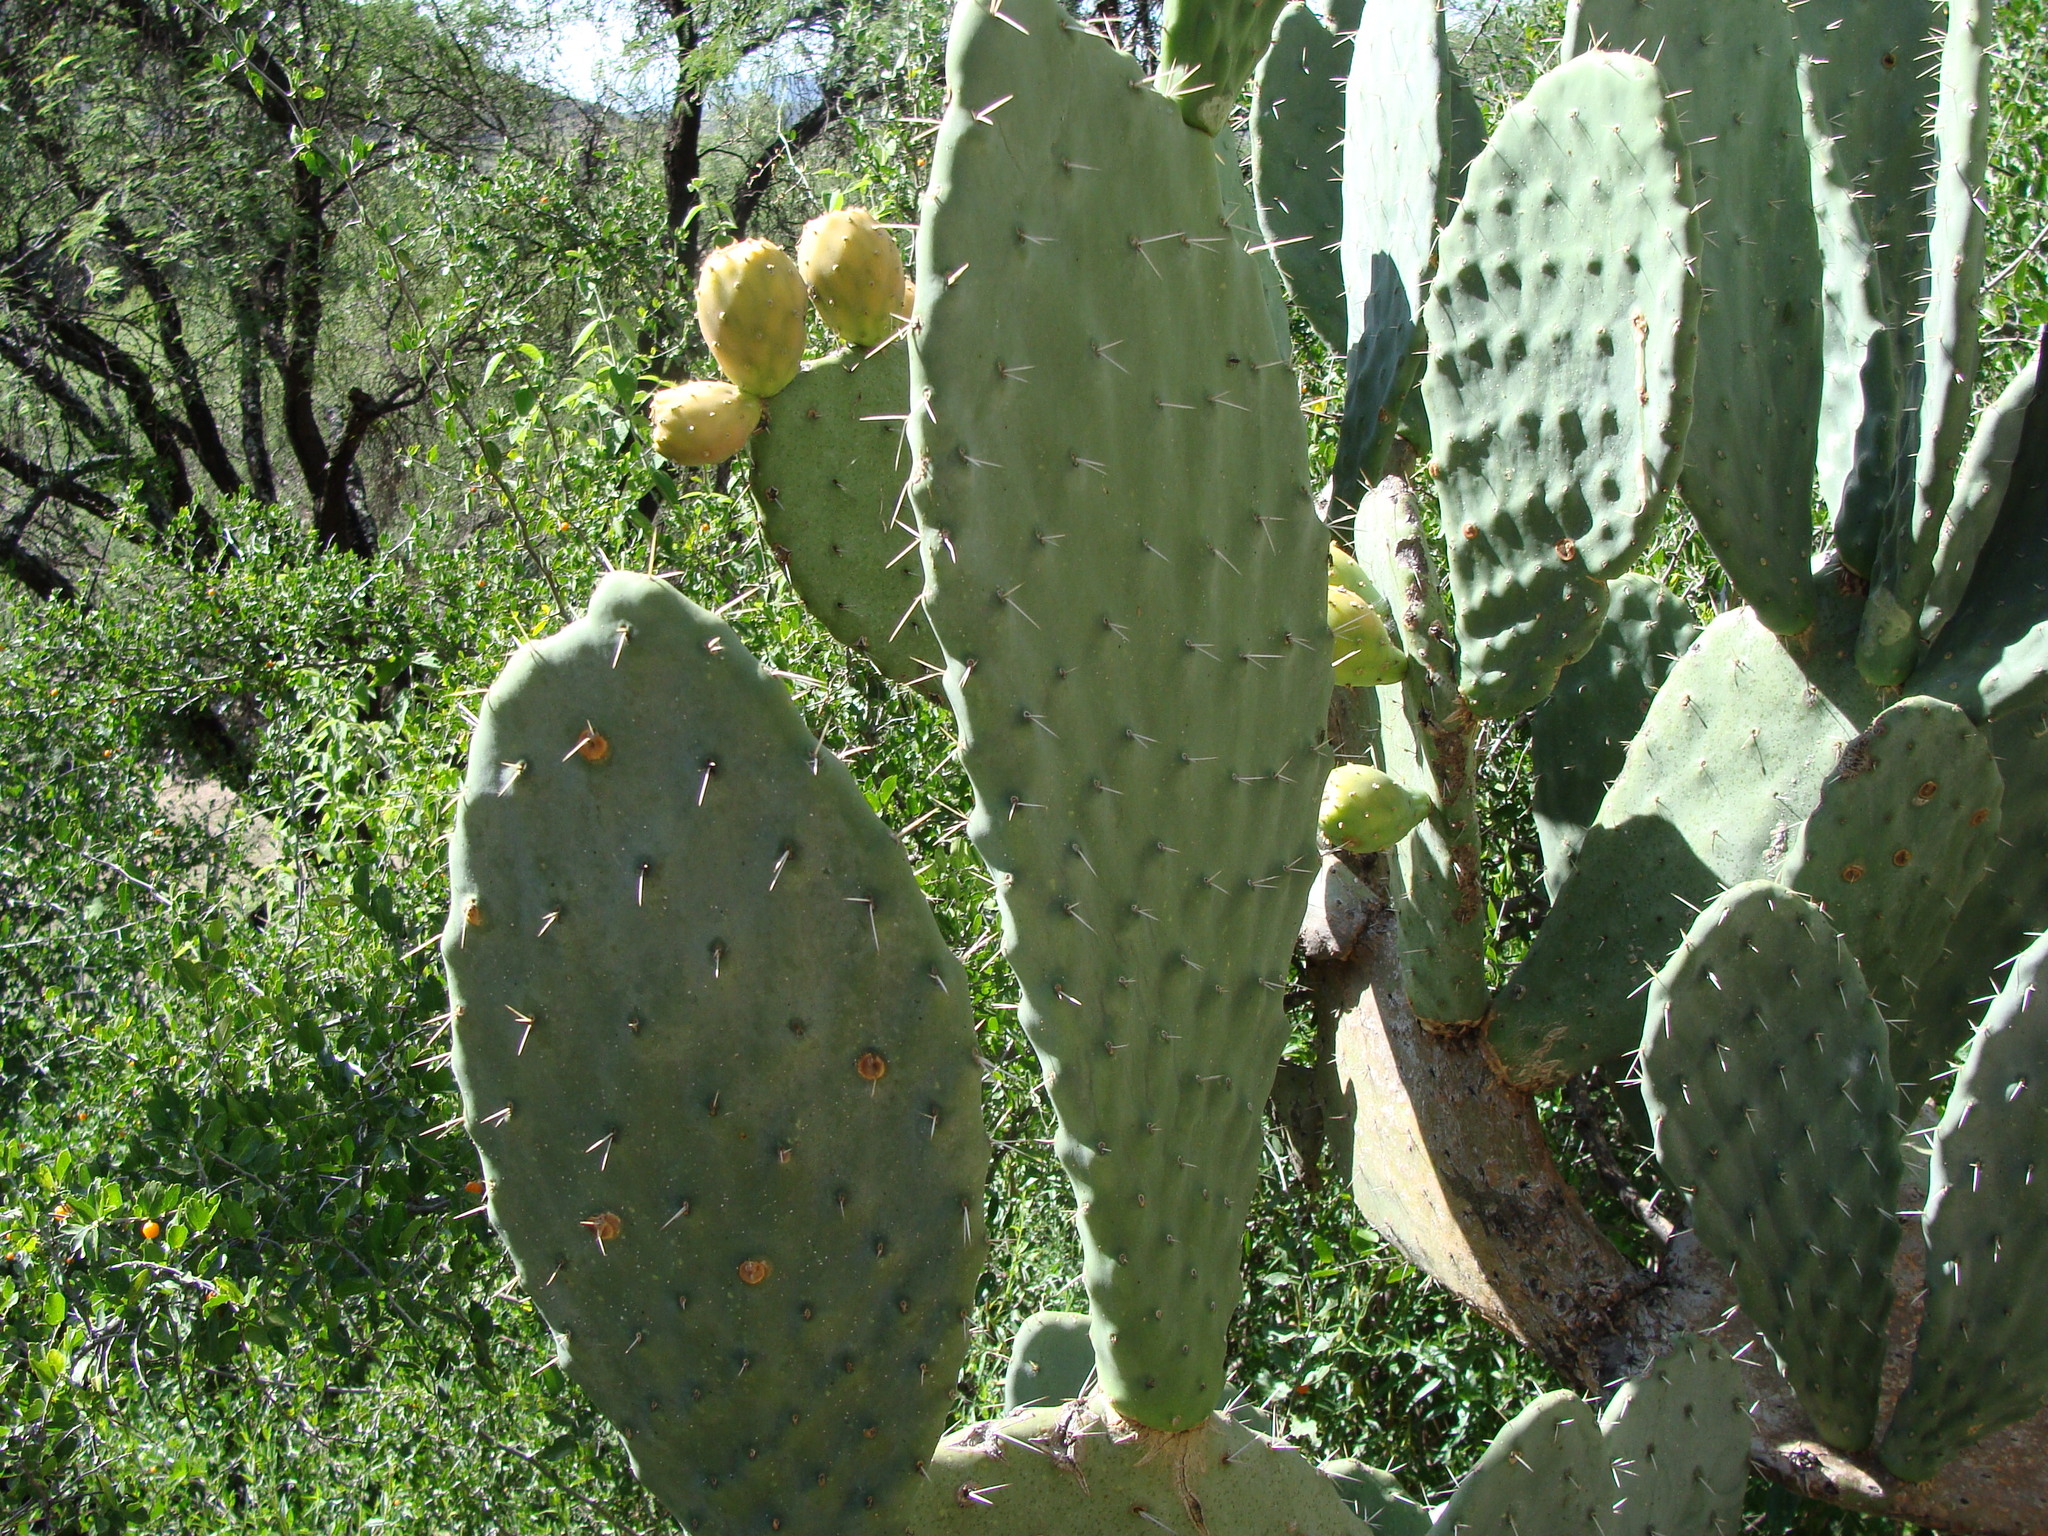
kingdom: Plantae
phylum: Tracheophyta
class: Magnoliopsida
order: Caryophyllales
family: Cactaceae
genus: Opuntia
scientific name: Opuntia lasiacantha
